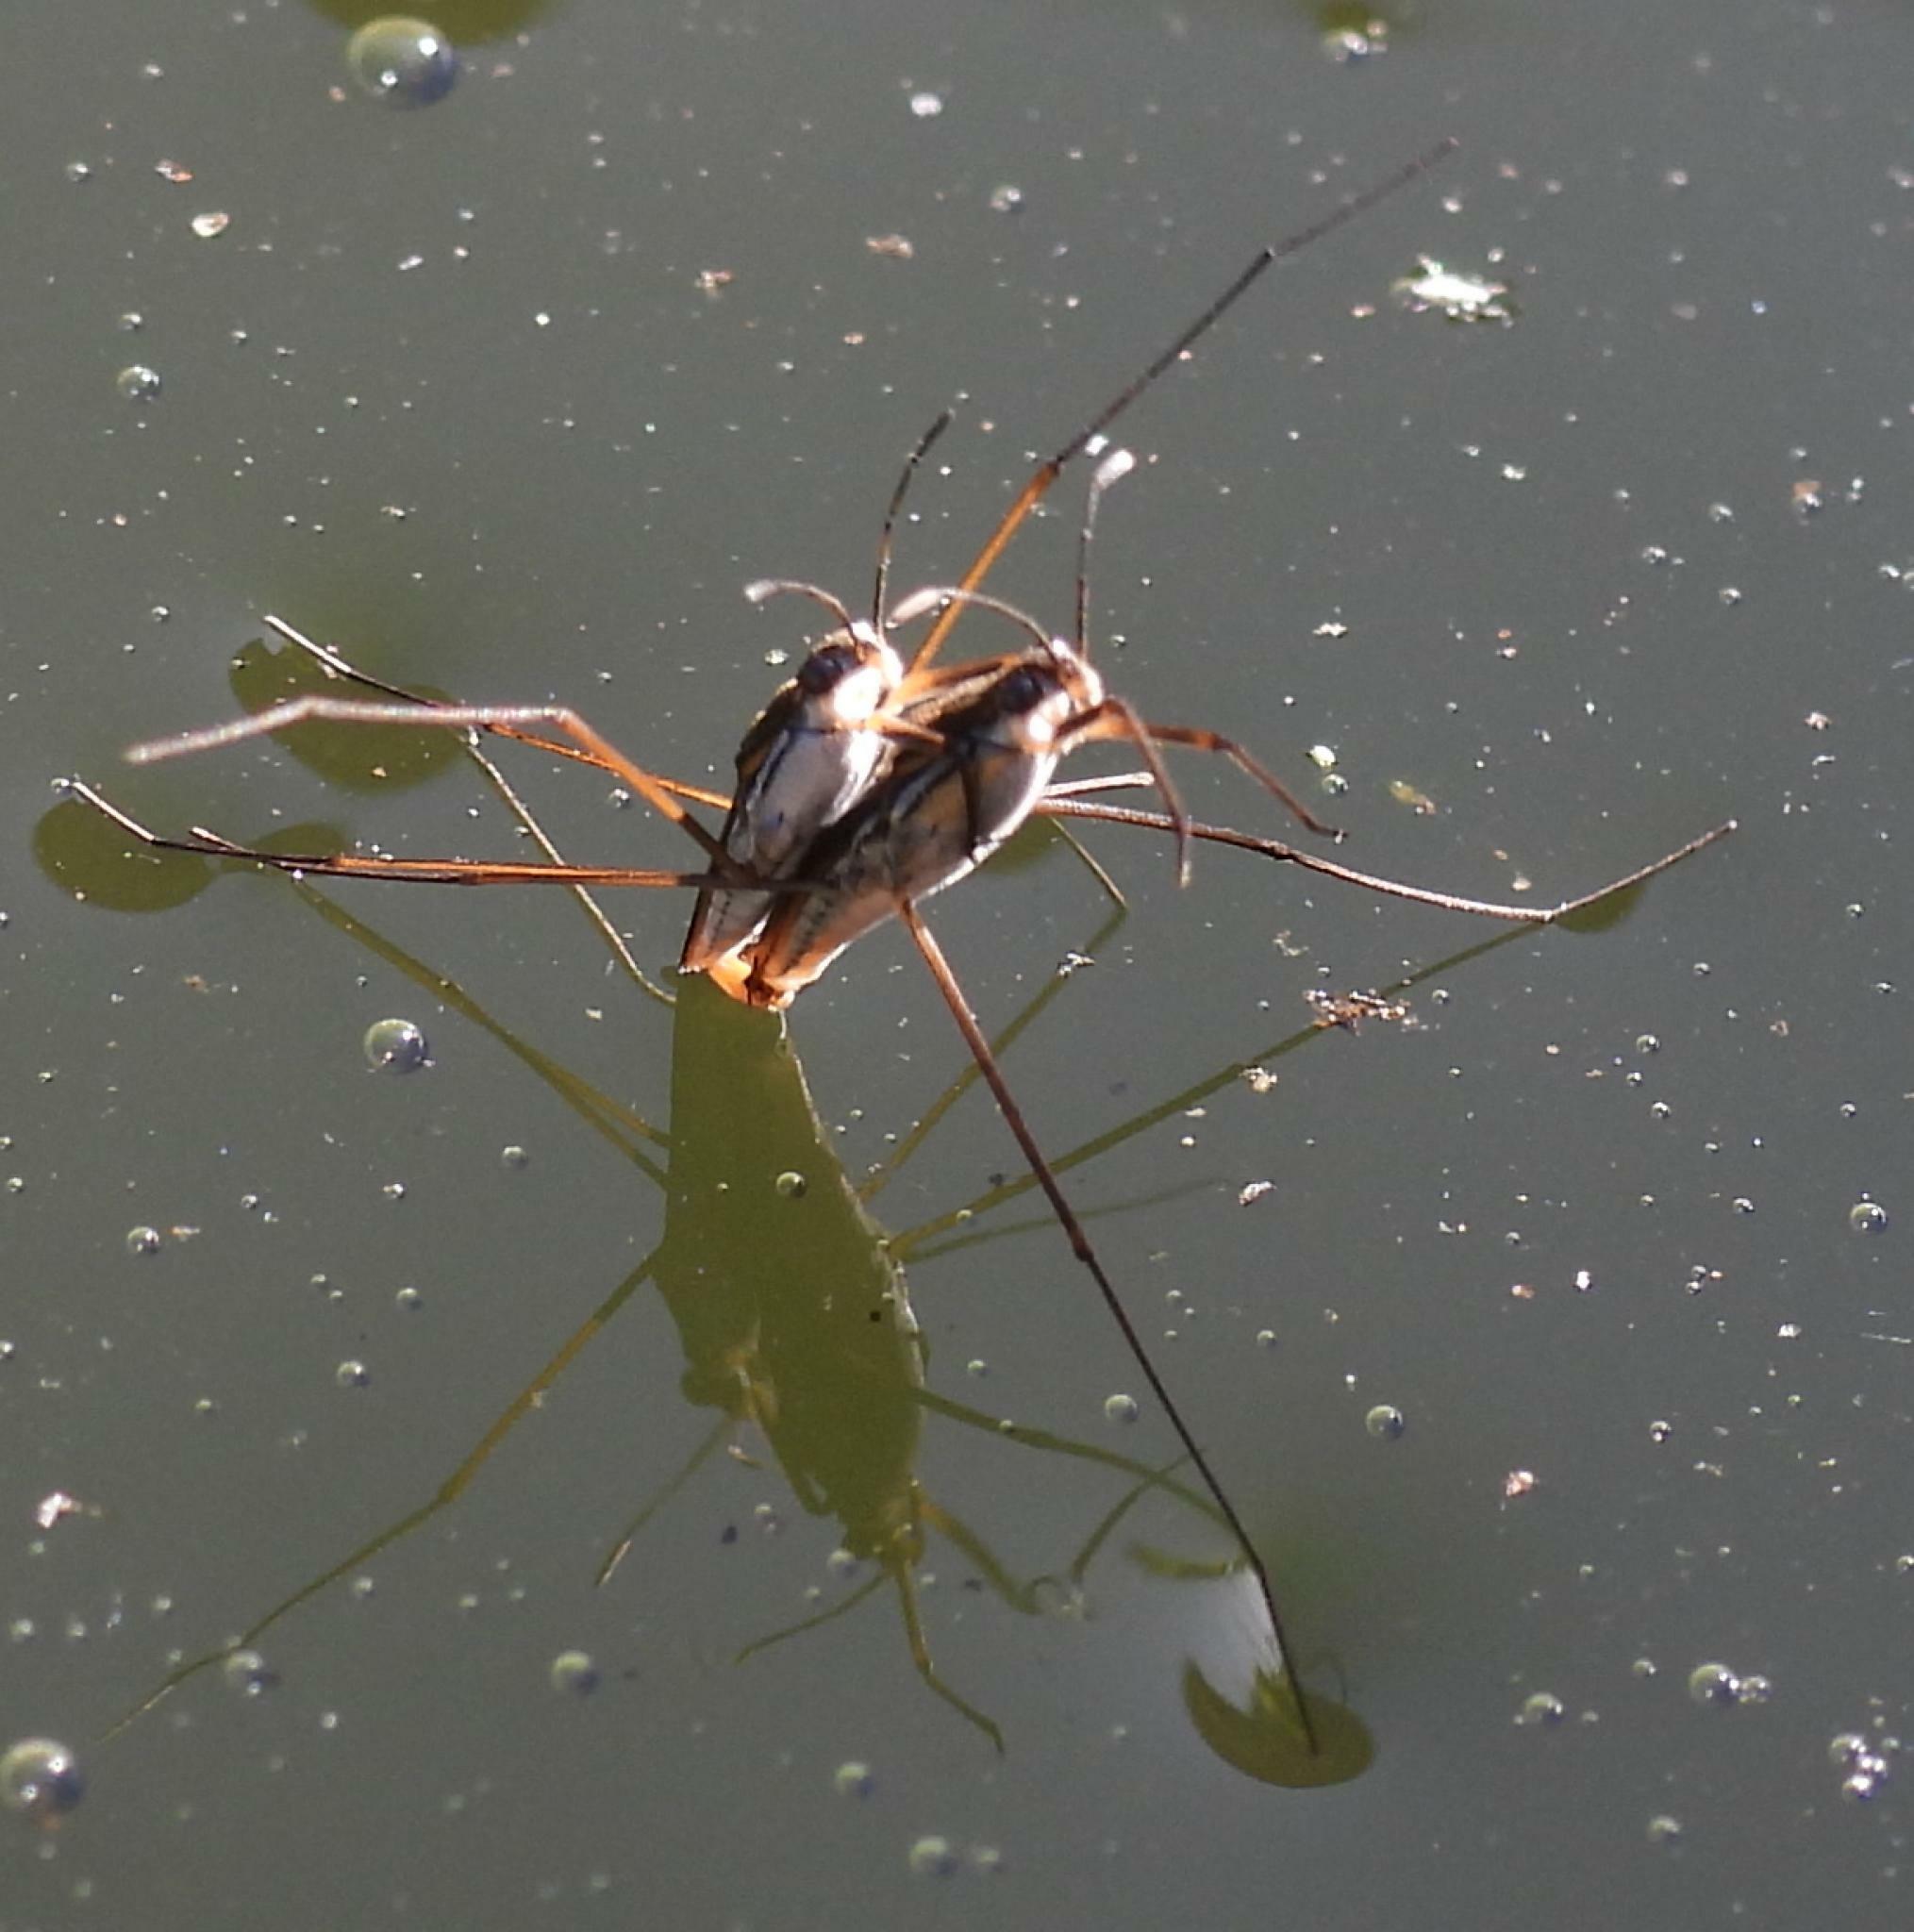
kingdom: Animalia
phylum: Arthropoda
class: Insecta
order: Hemiptera
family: Gerridae
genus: Gerris
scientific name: Gerris swakopensis
